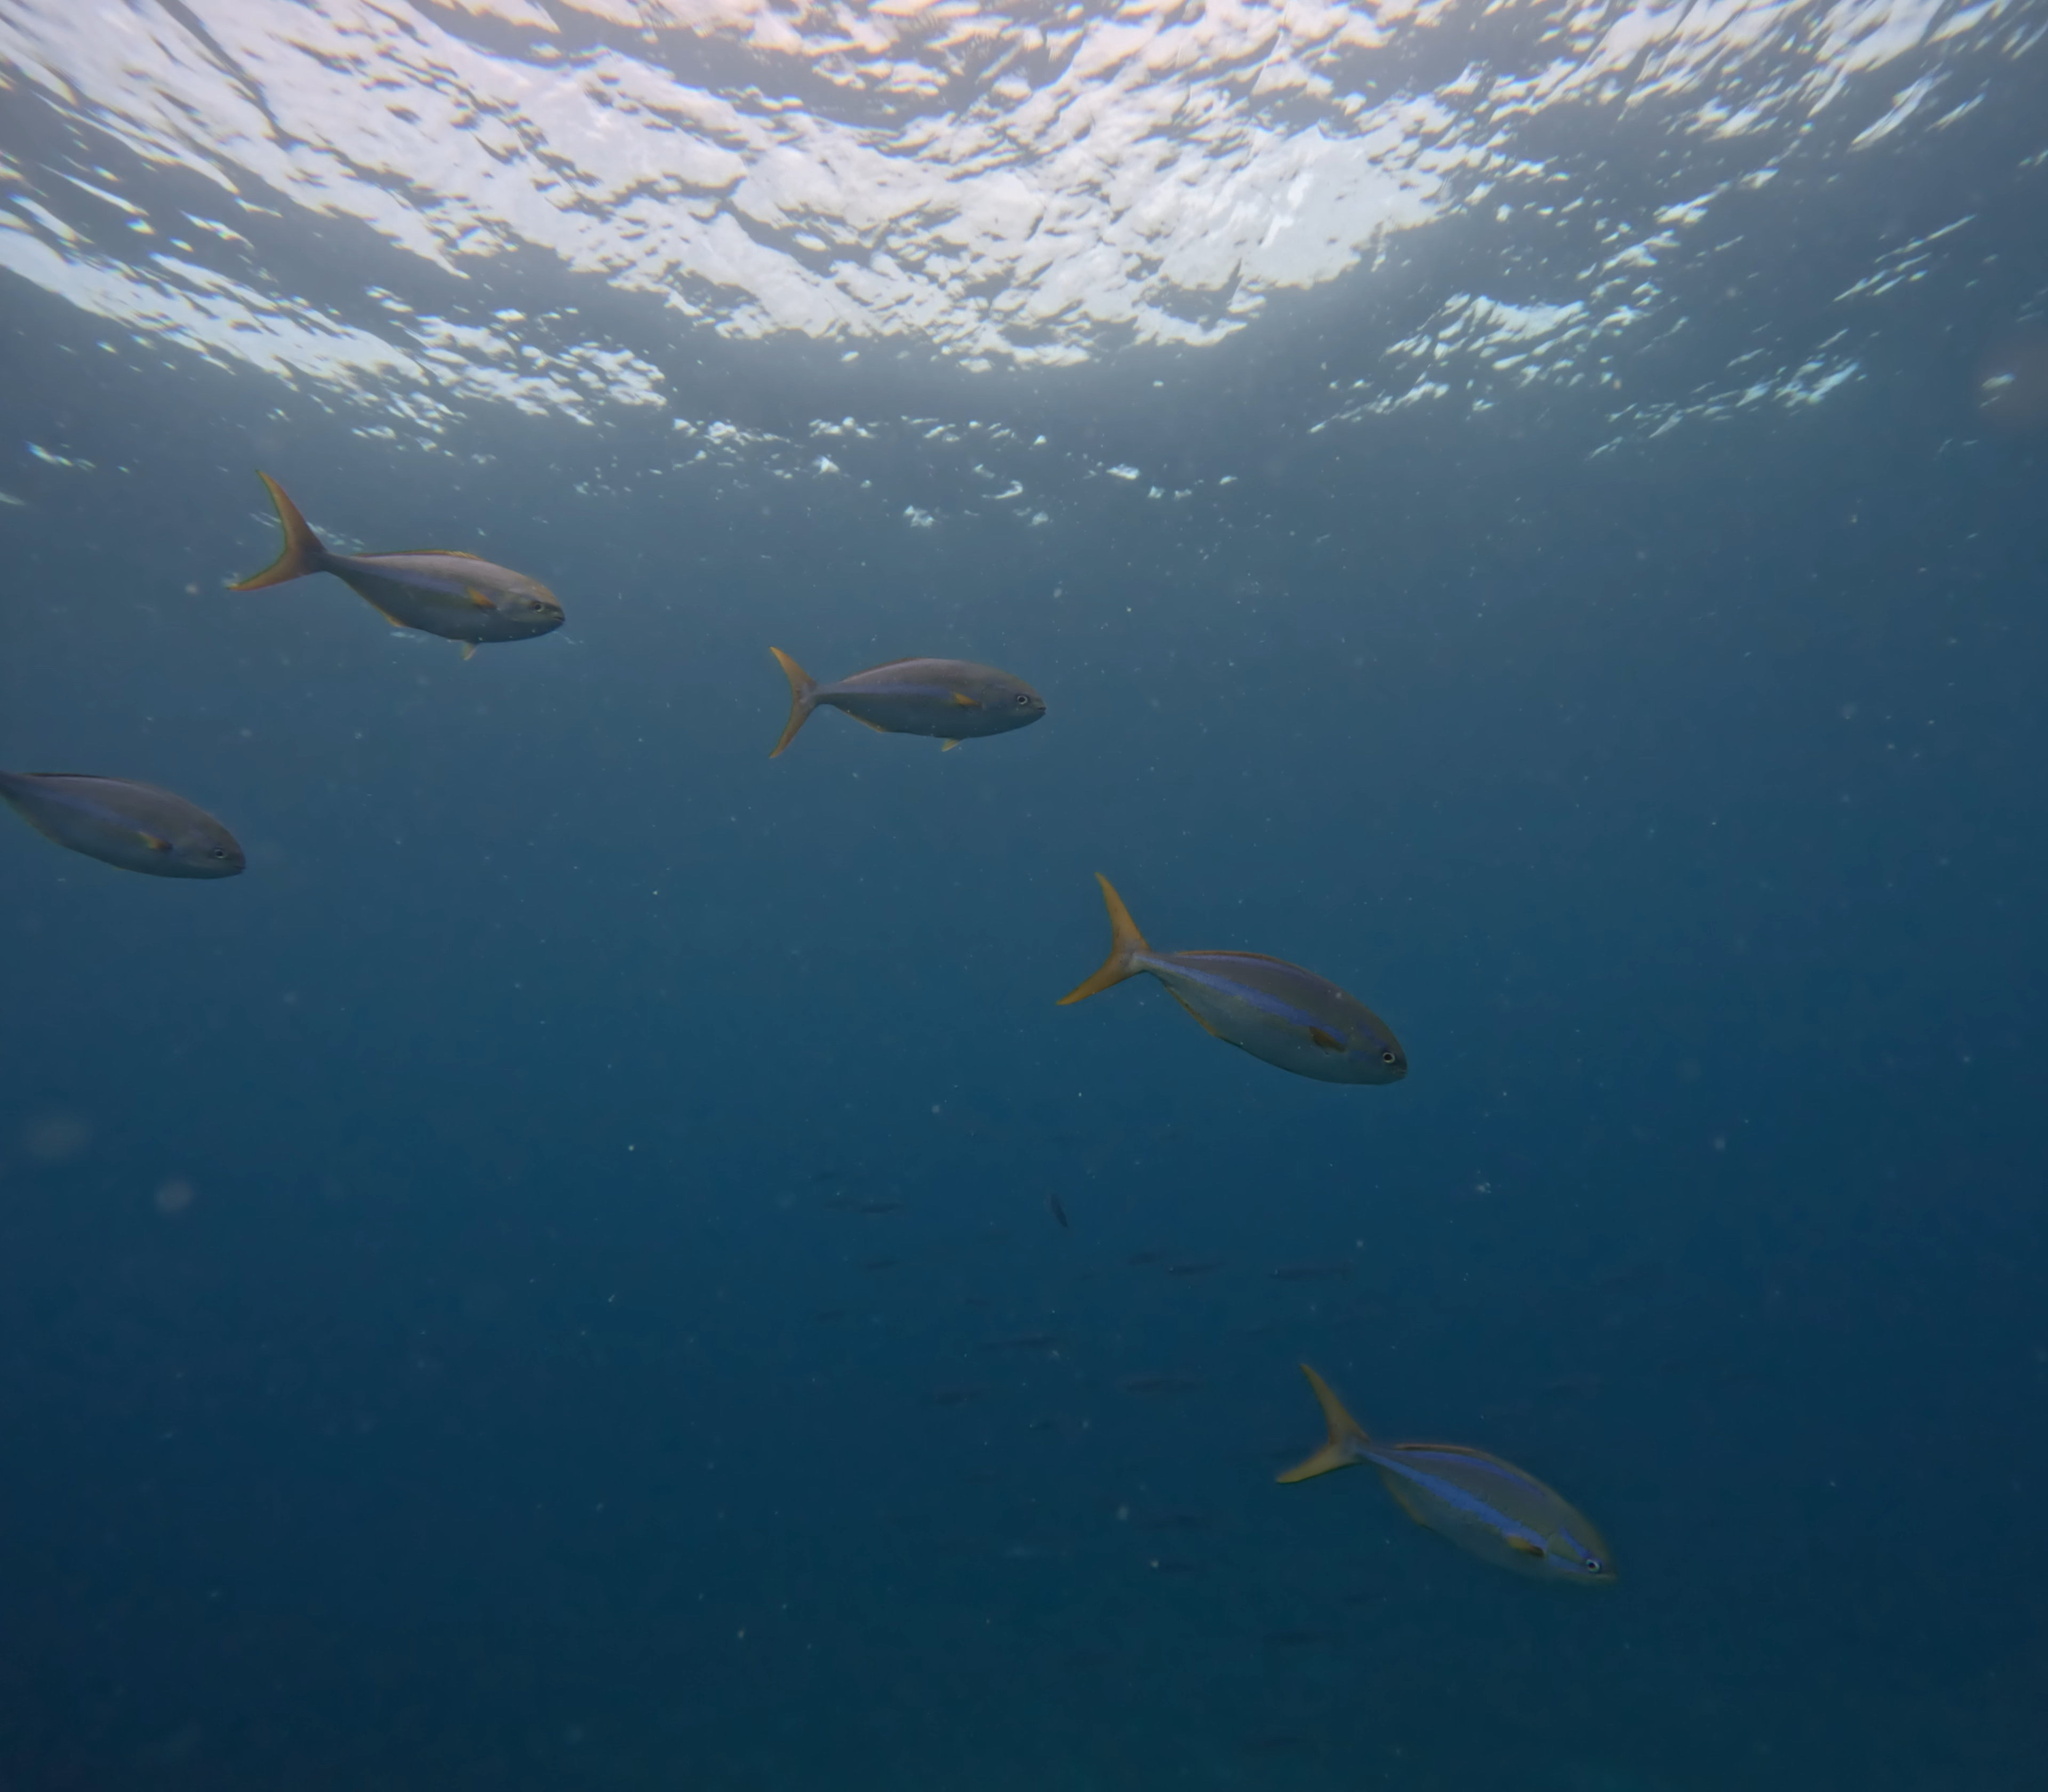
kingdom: Animalia
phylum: Chordata
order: Perciformes
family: Kyphosidae
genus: Kyphosus
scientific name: Kyphosus ocyurus
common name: Bluestriped chub
